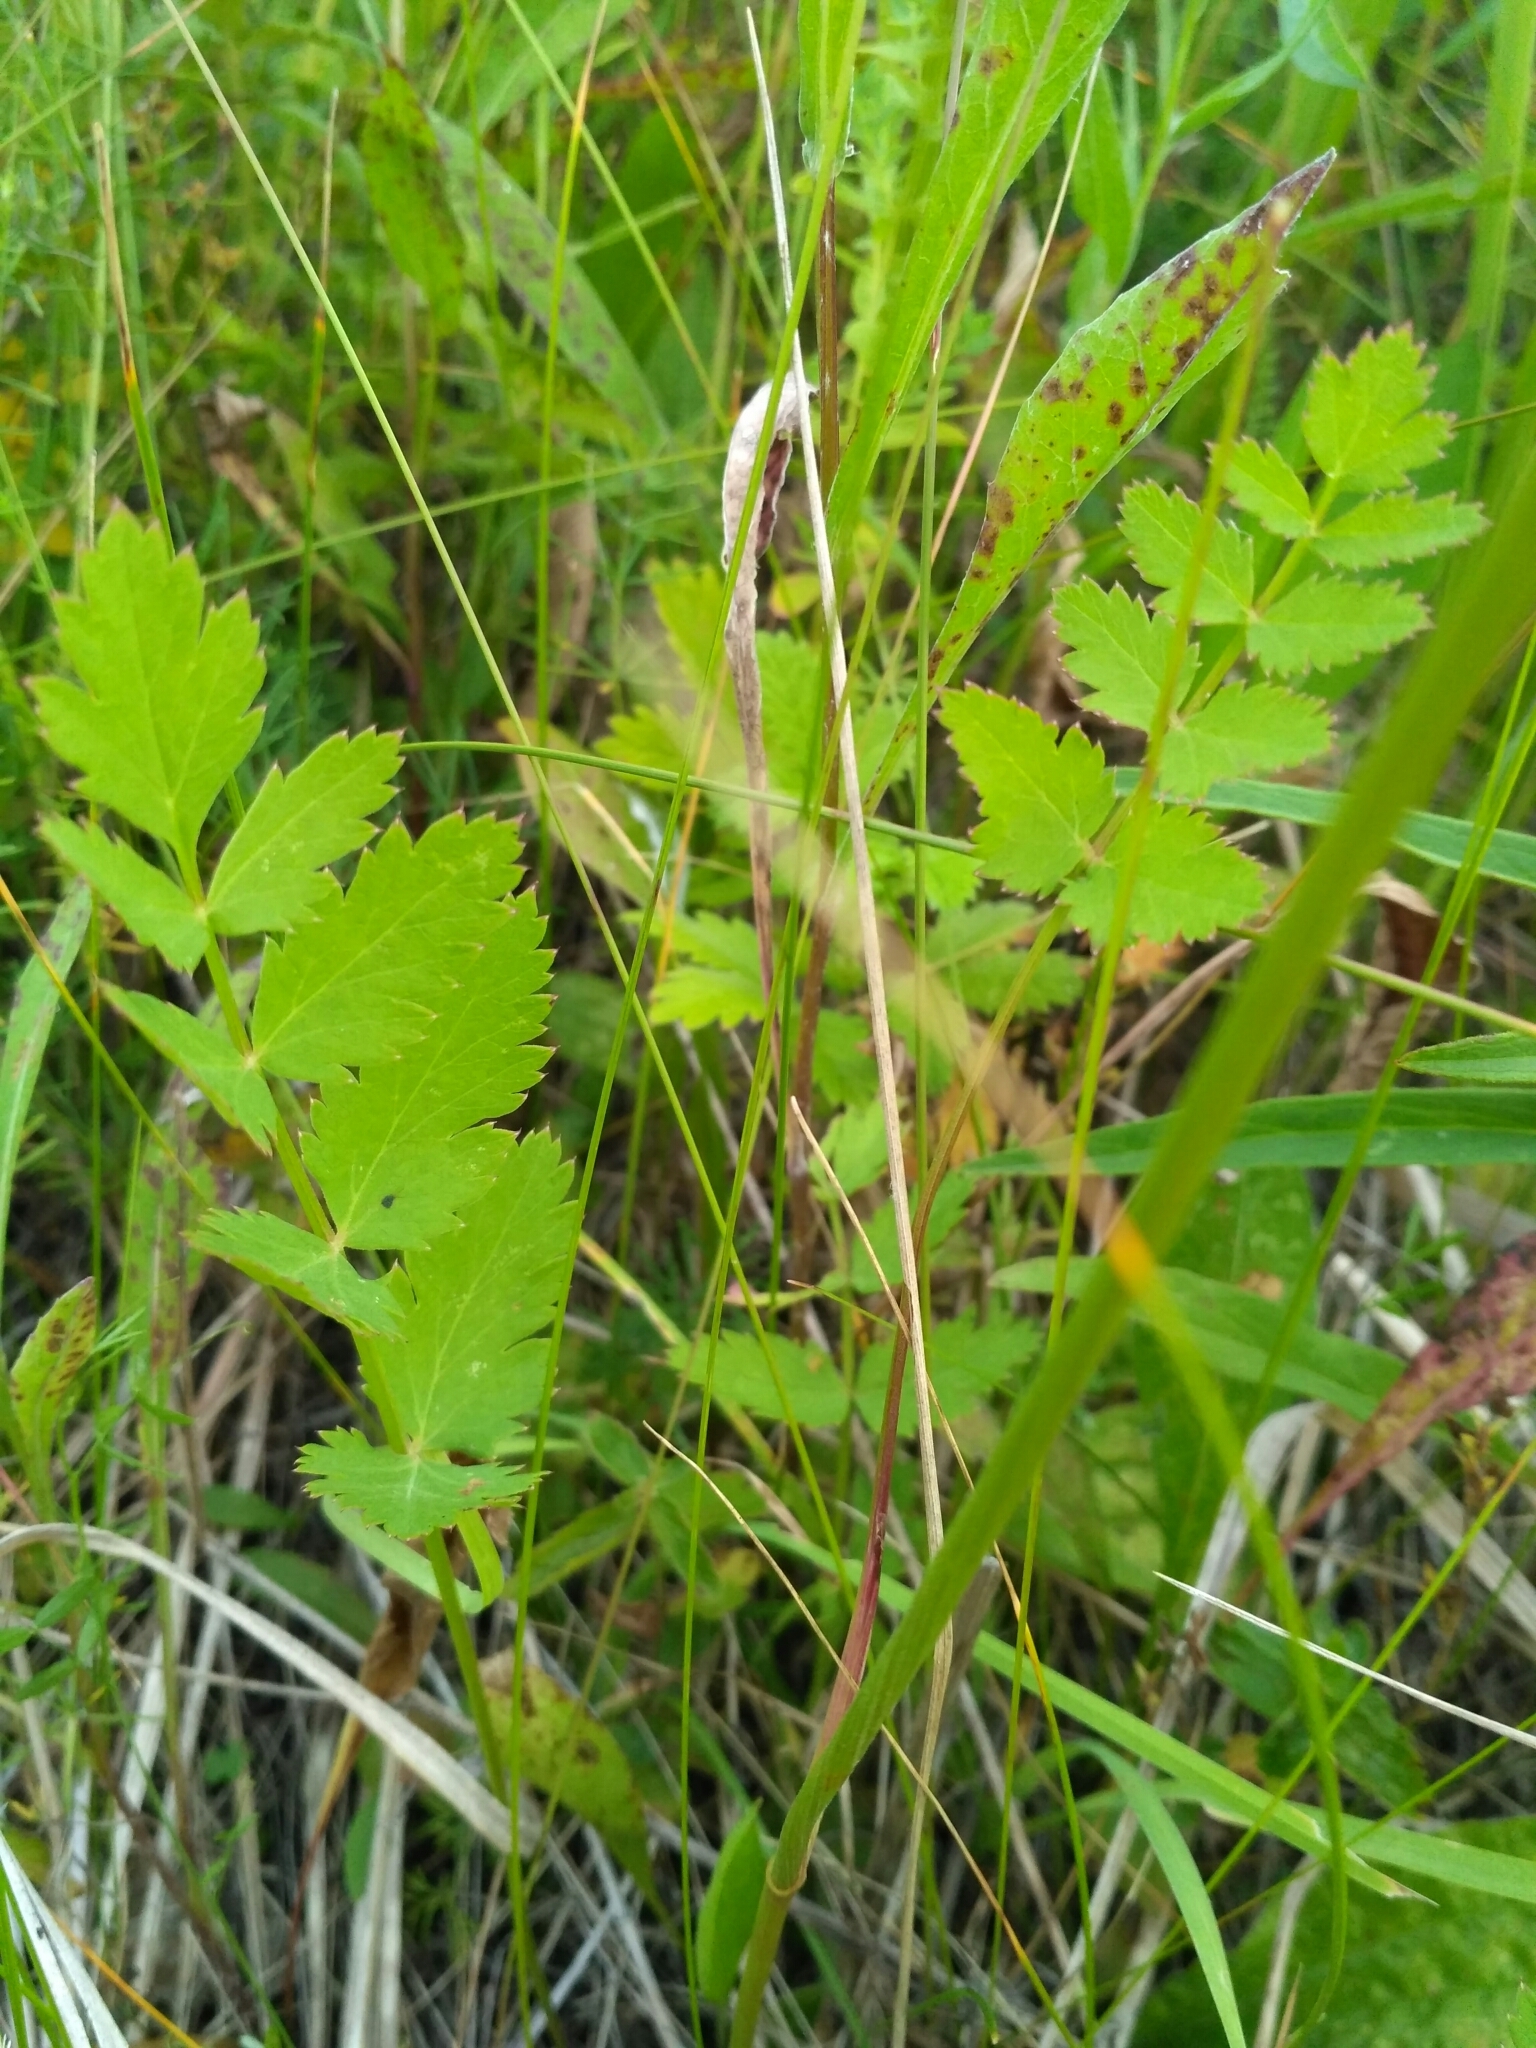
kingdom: Plantae
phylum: Tracheophyta
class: Magnoliopsida
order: Apiales
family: Apiaceae
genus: Pimpinella
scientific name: Pimpinella saxifraga
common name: Burnet-saxifrage
